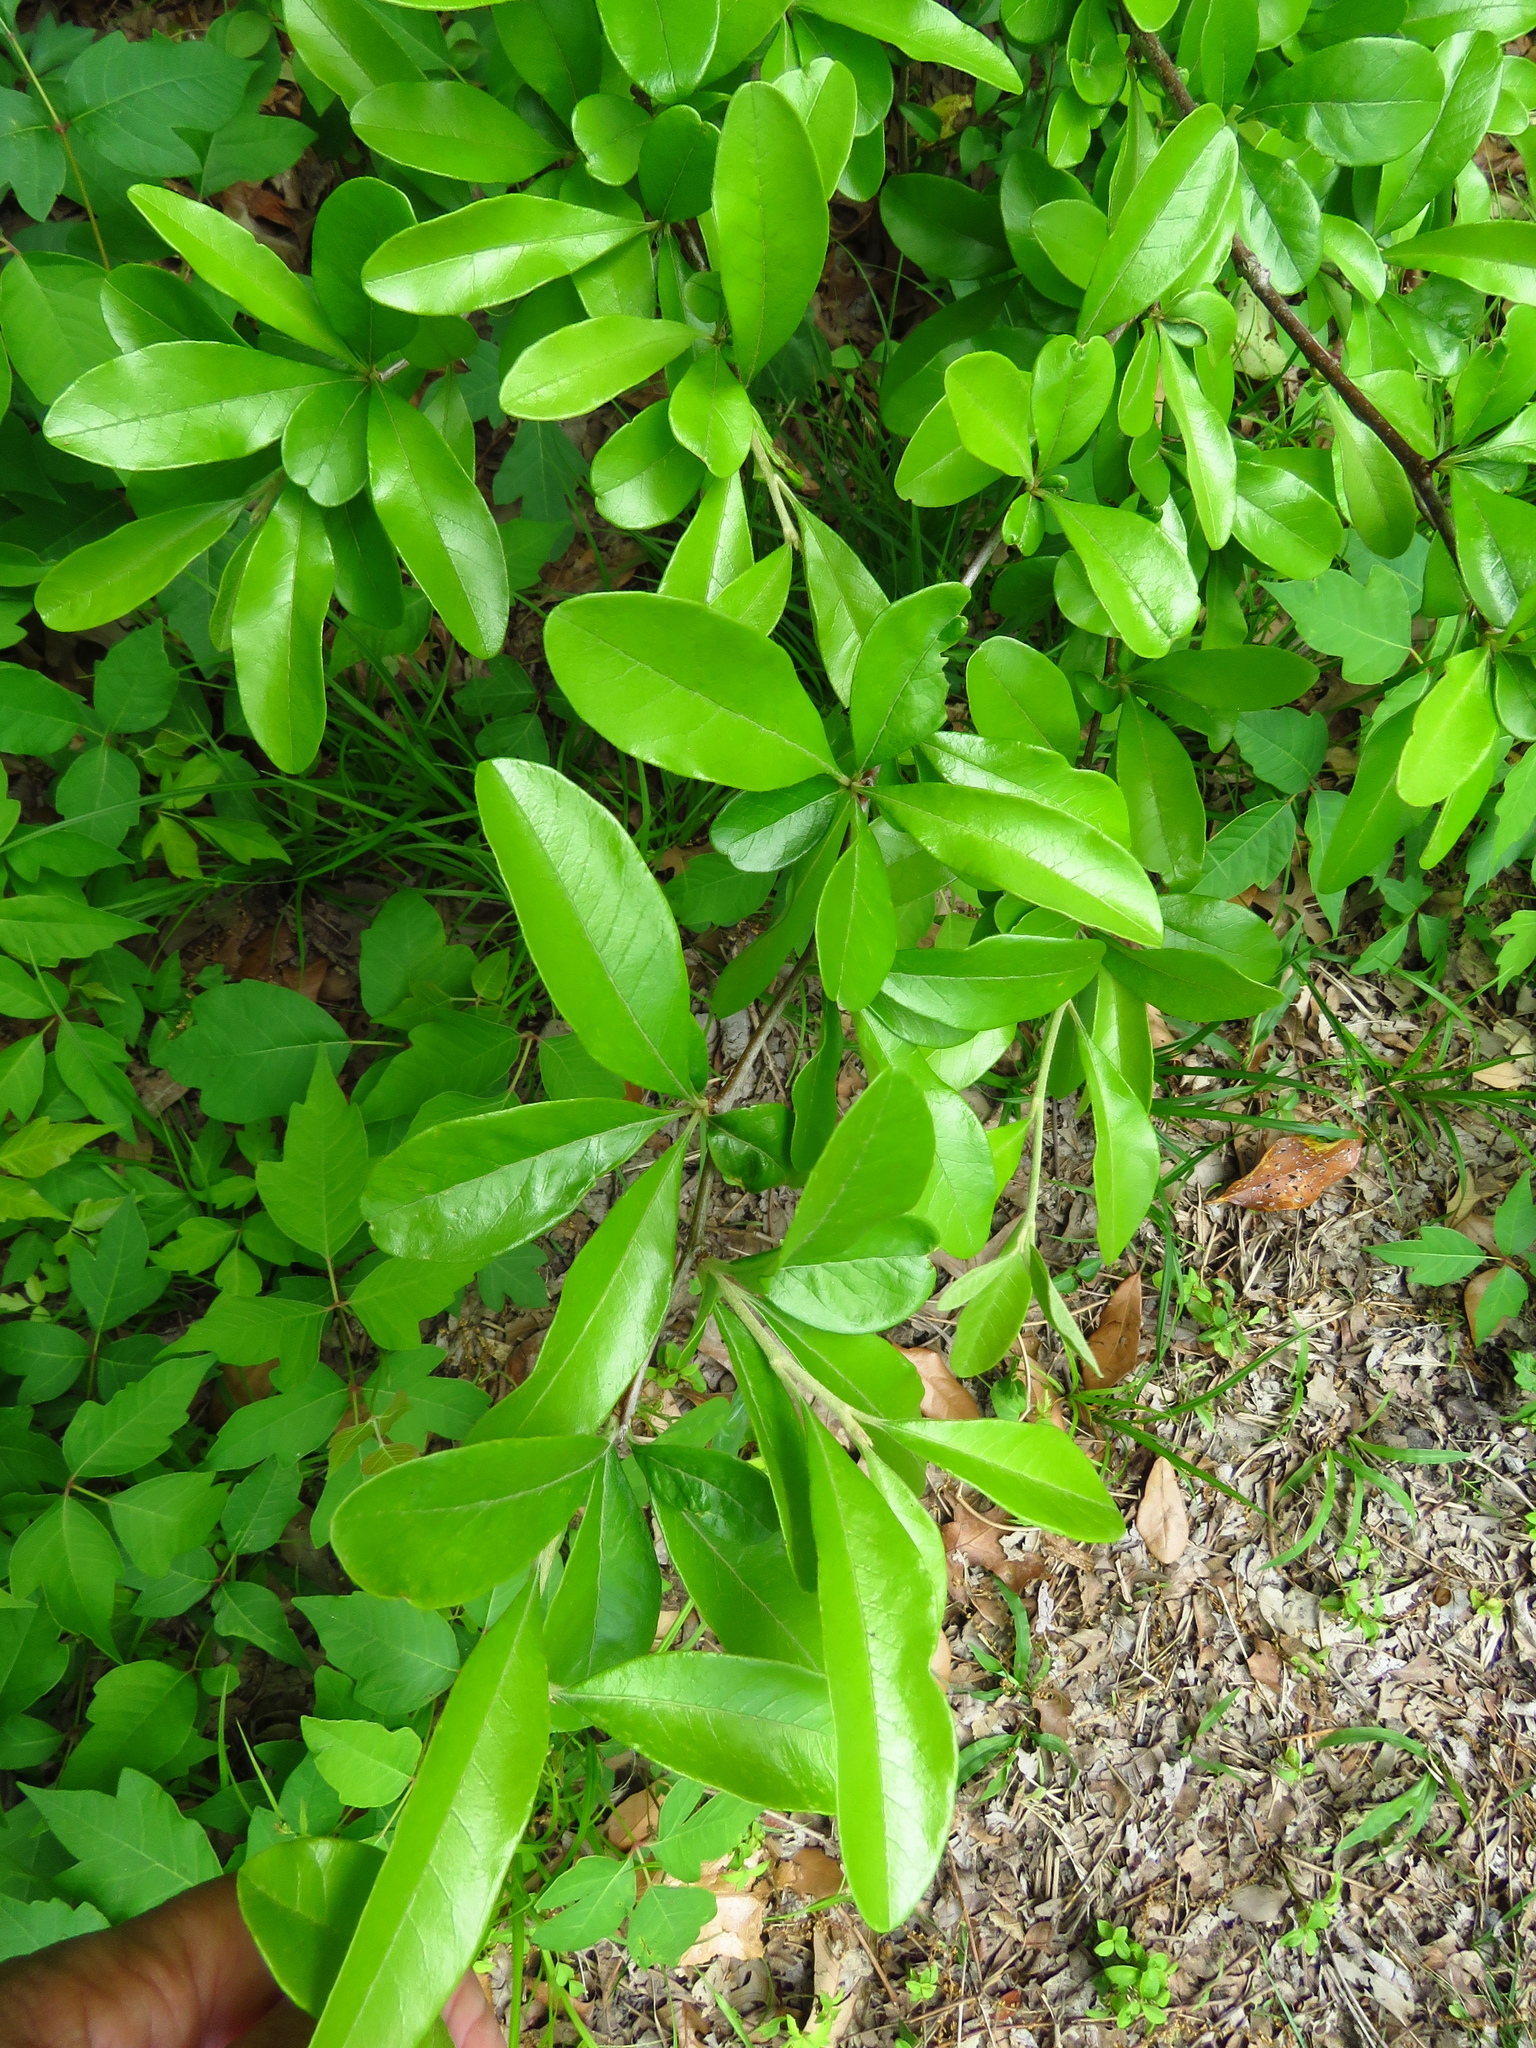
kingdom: Plantae
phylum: Tracheophyta
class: Magnoliopsida
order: Ericales
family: Sapotaceae
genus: Sideroxylon
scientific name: Sideroxylon lanuginosum
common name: Chittamwood
